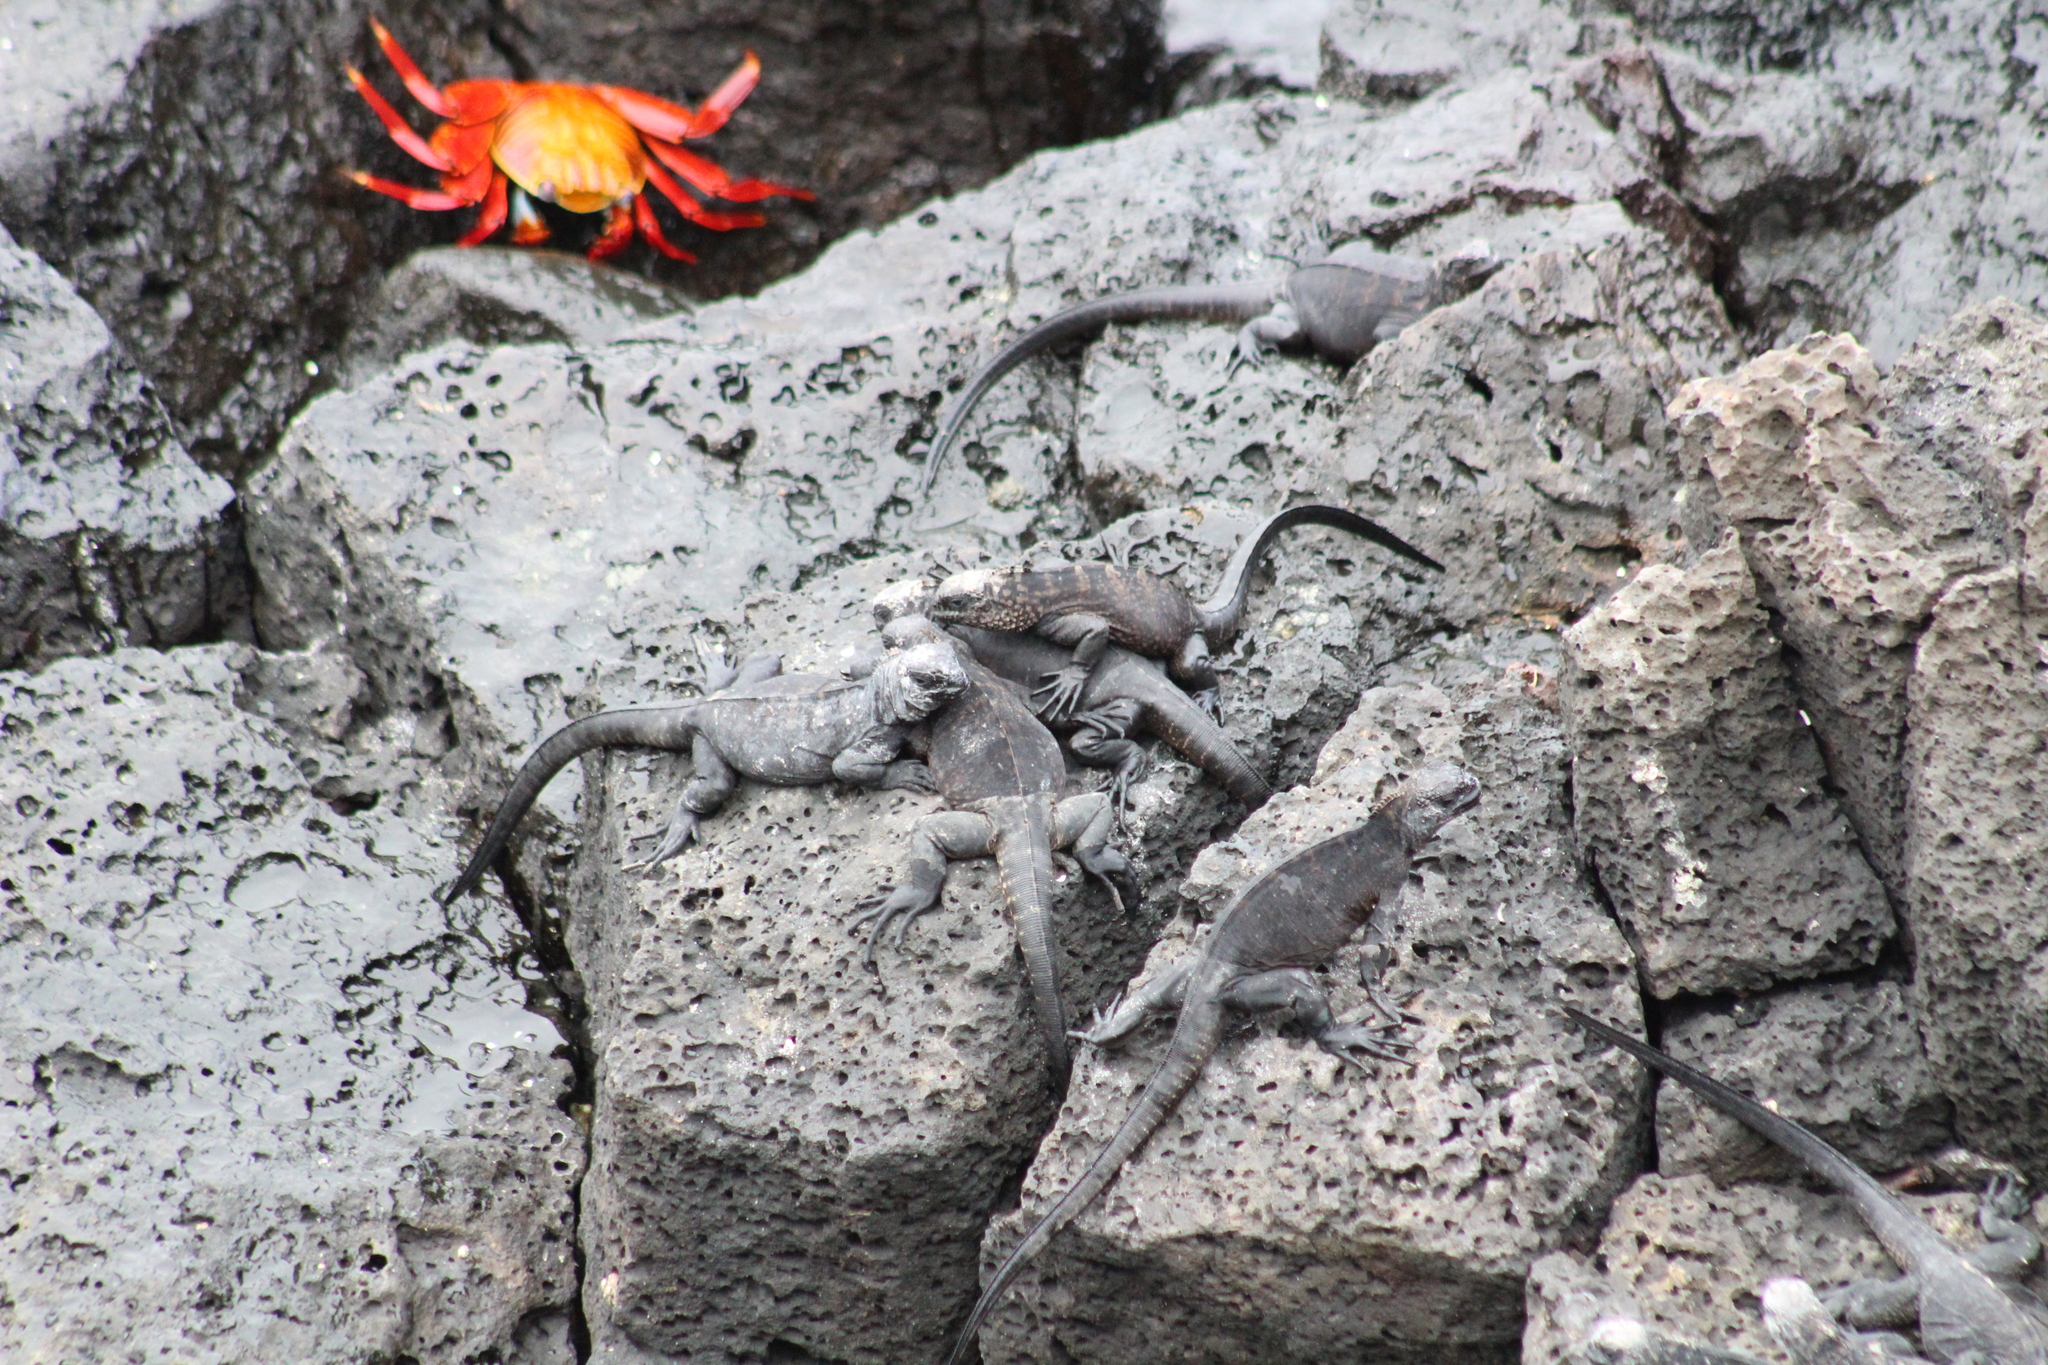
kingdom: Animalia
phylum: Chordata
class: Squamata
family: Iguanidae
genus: Amblyrhynchus
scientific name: Amblyrhynchus cristatus
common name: Marine iguana
